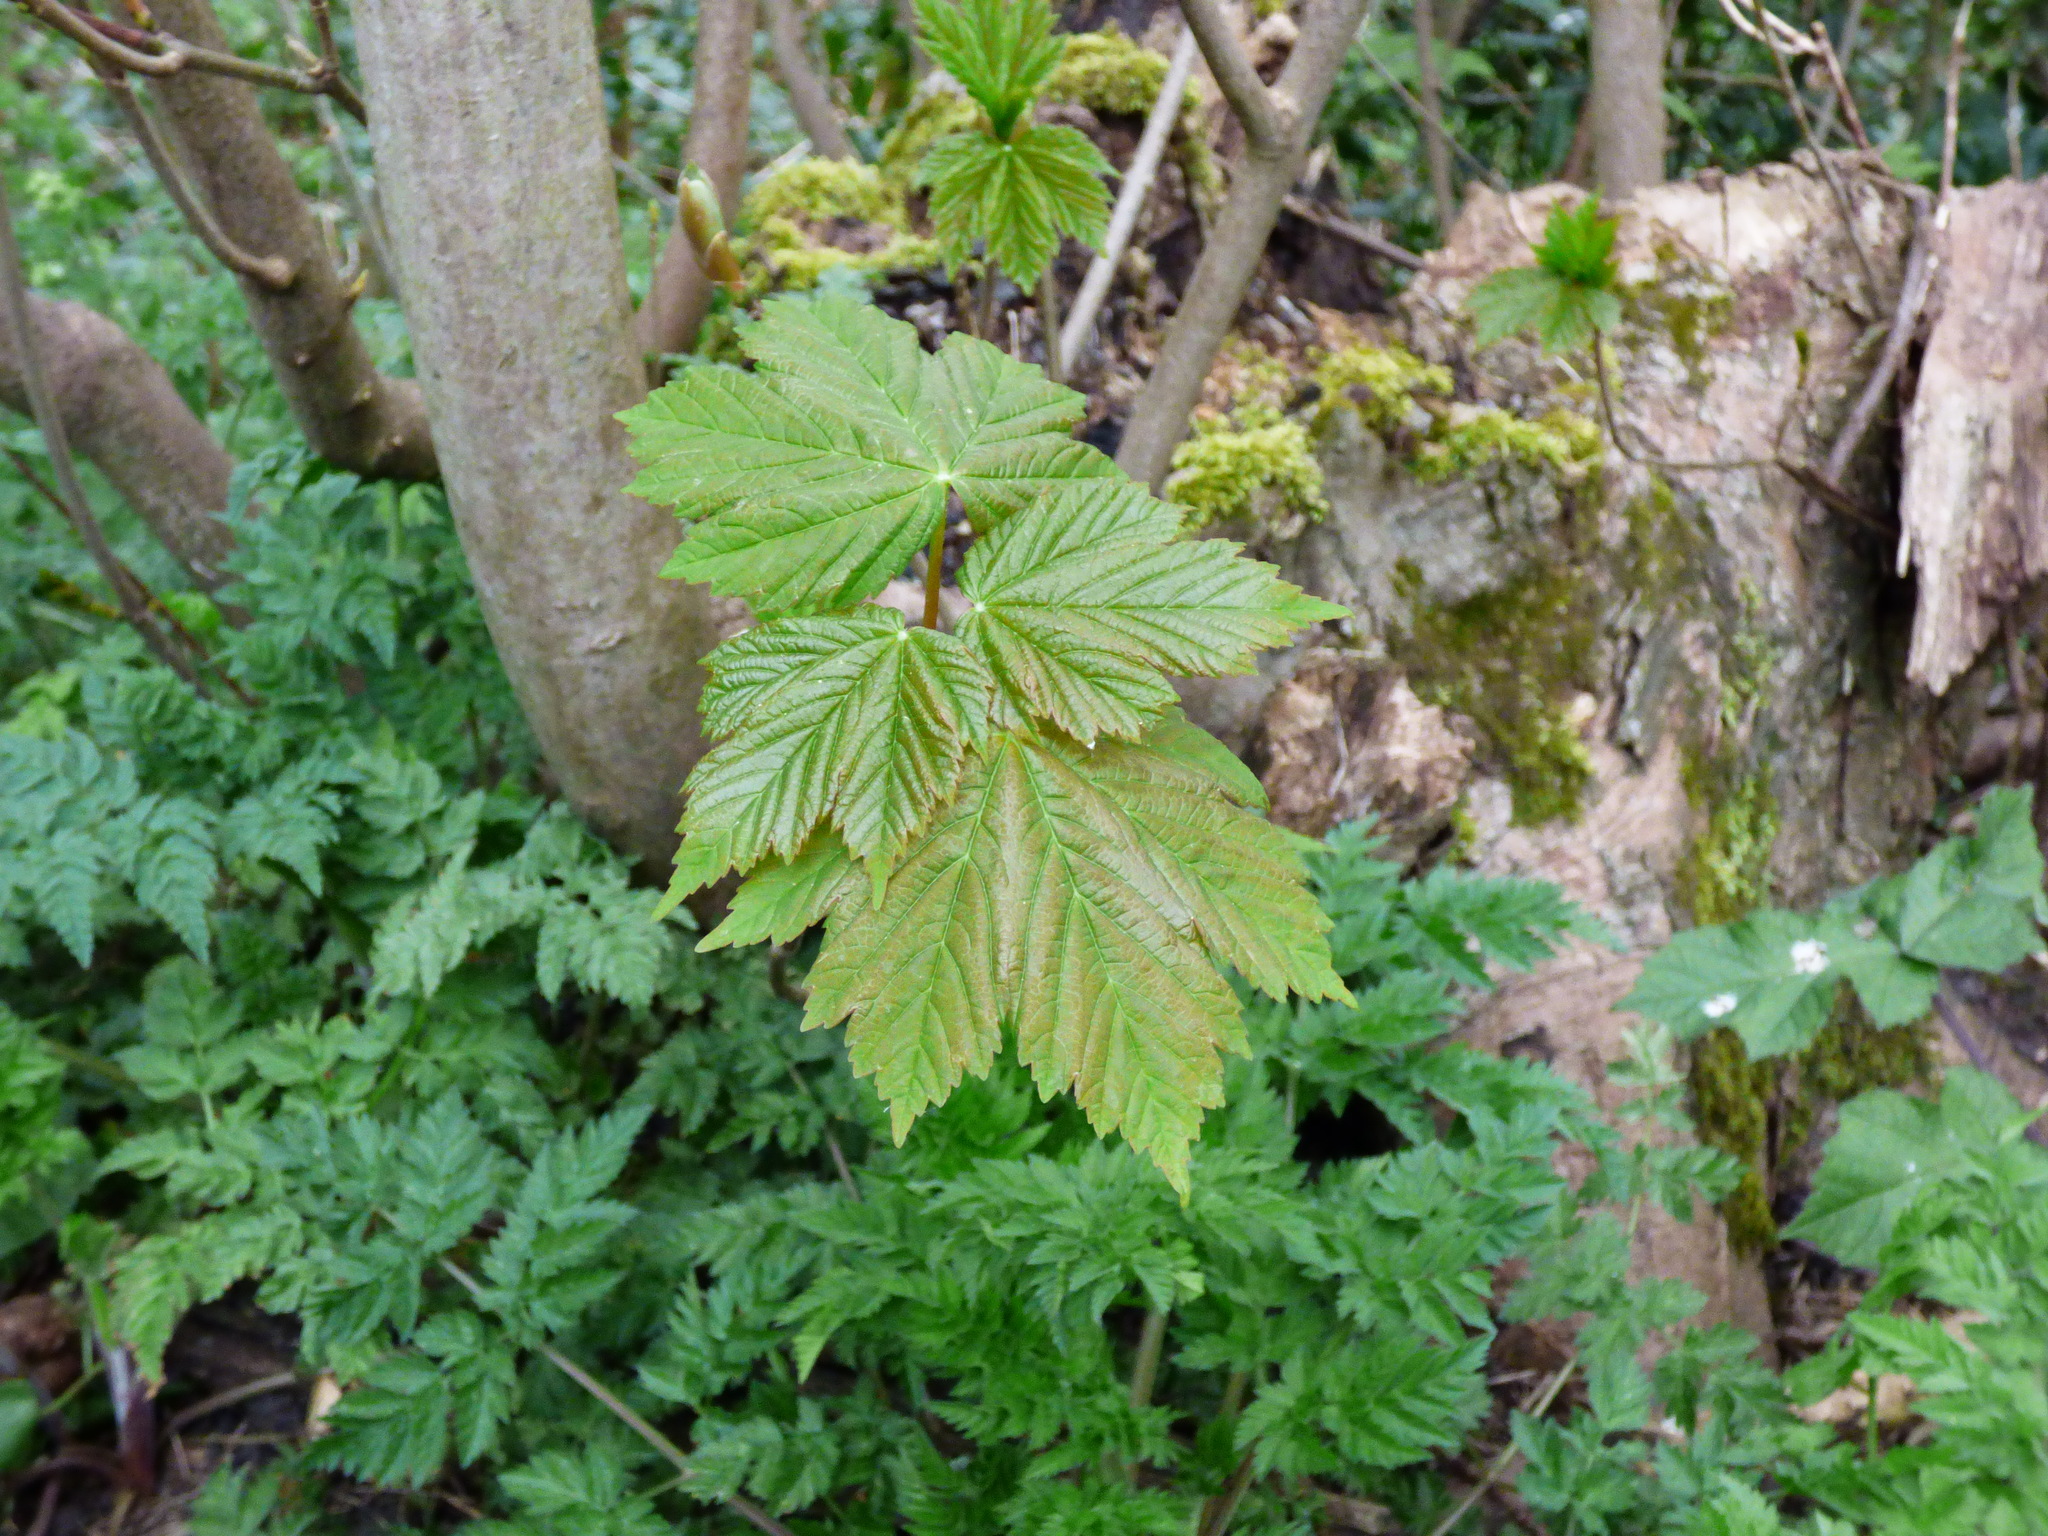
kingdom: Plantae
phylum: Tracheophyta
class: Magnoliopsida
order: Sapindales
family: Sapindaceae
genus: Acer
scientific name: Acer pseudoplatanus
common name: Sycamore
